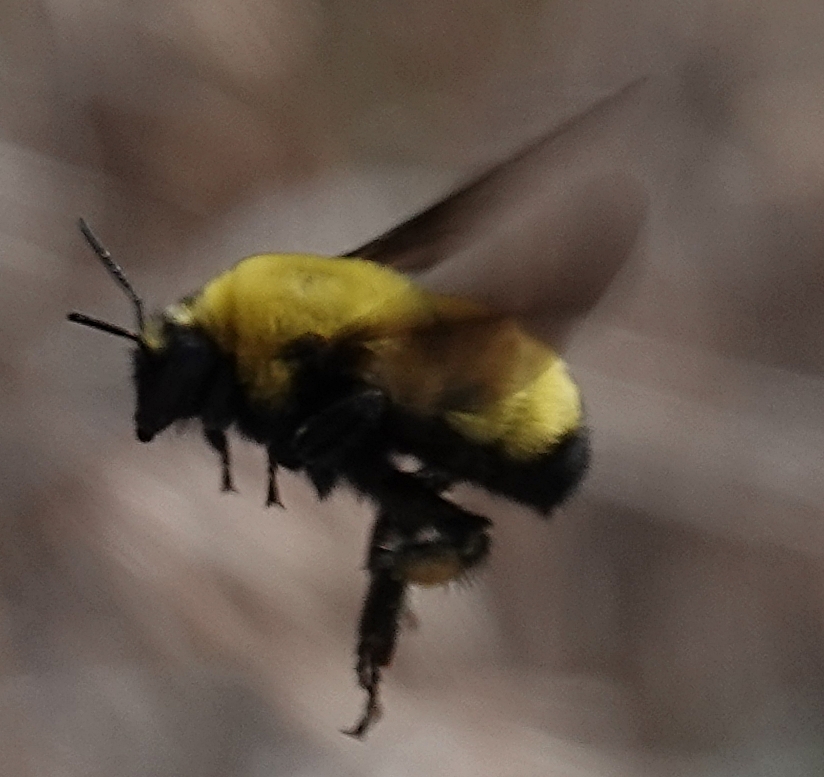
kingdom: Animalia
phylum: Arthropoda
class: Insecta
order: Hymenoptera
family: Apidae
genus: Bombus
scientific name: Bombus morrisoni
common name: Morrison bumble bee
